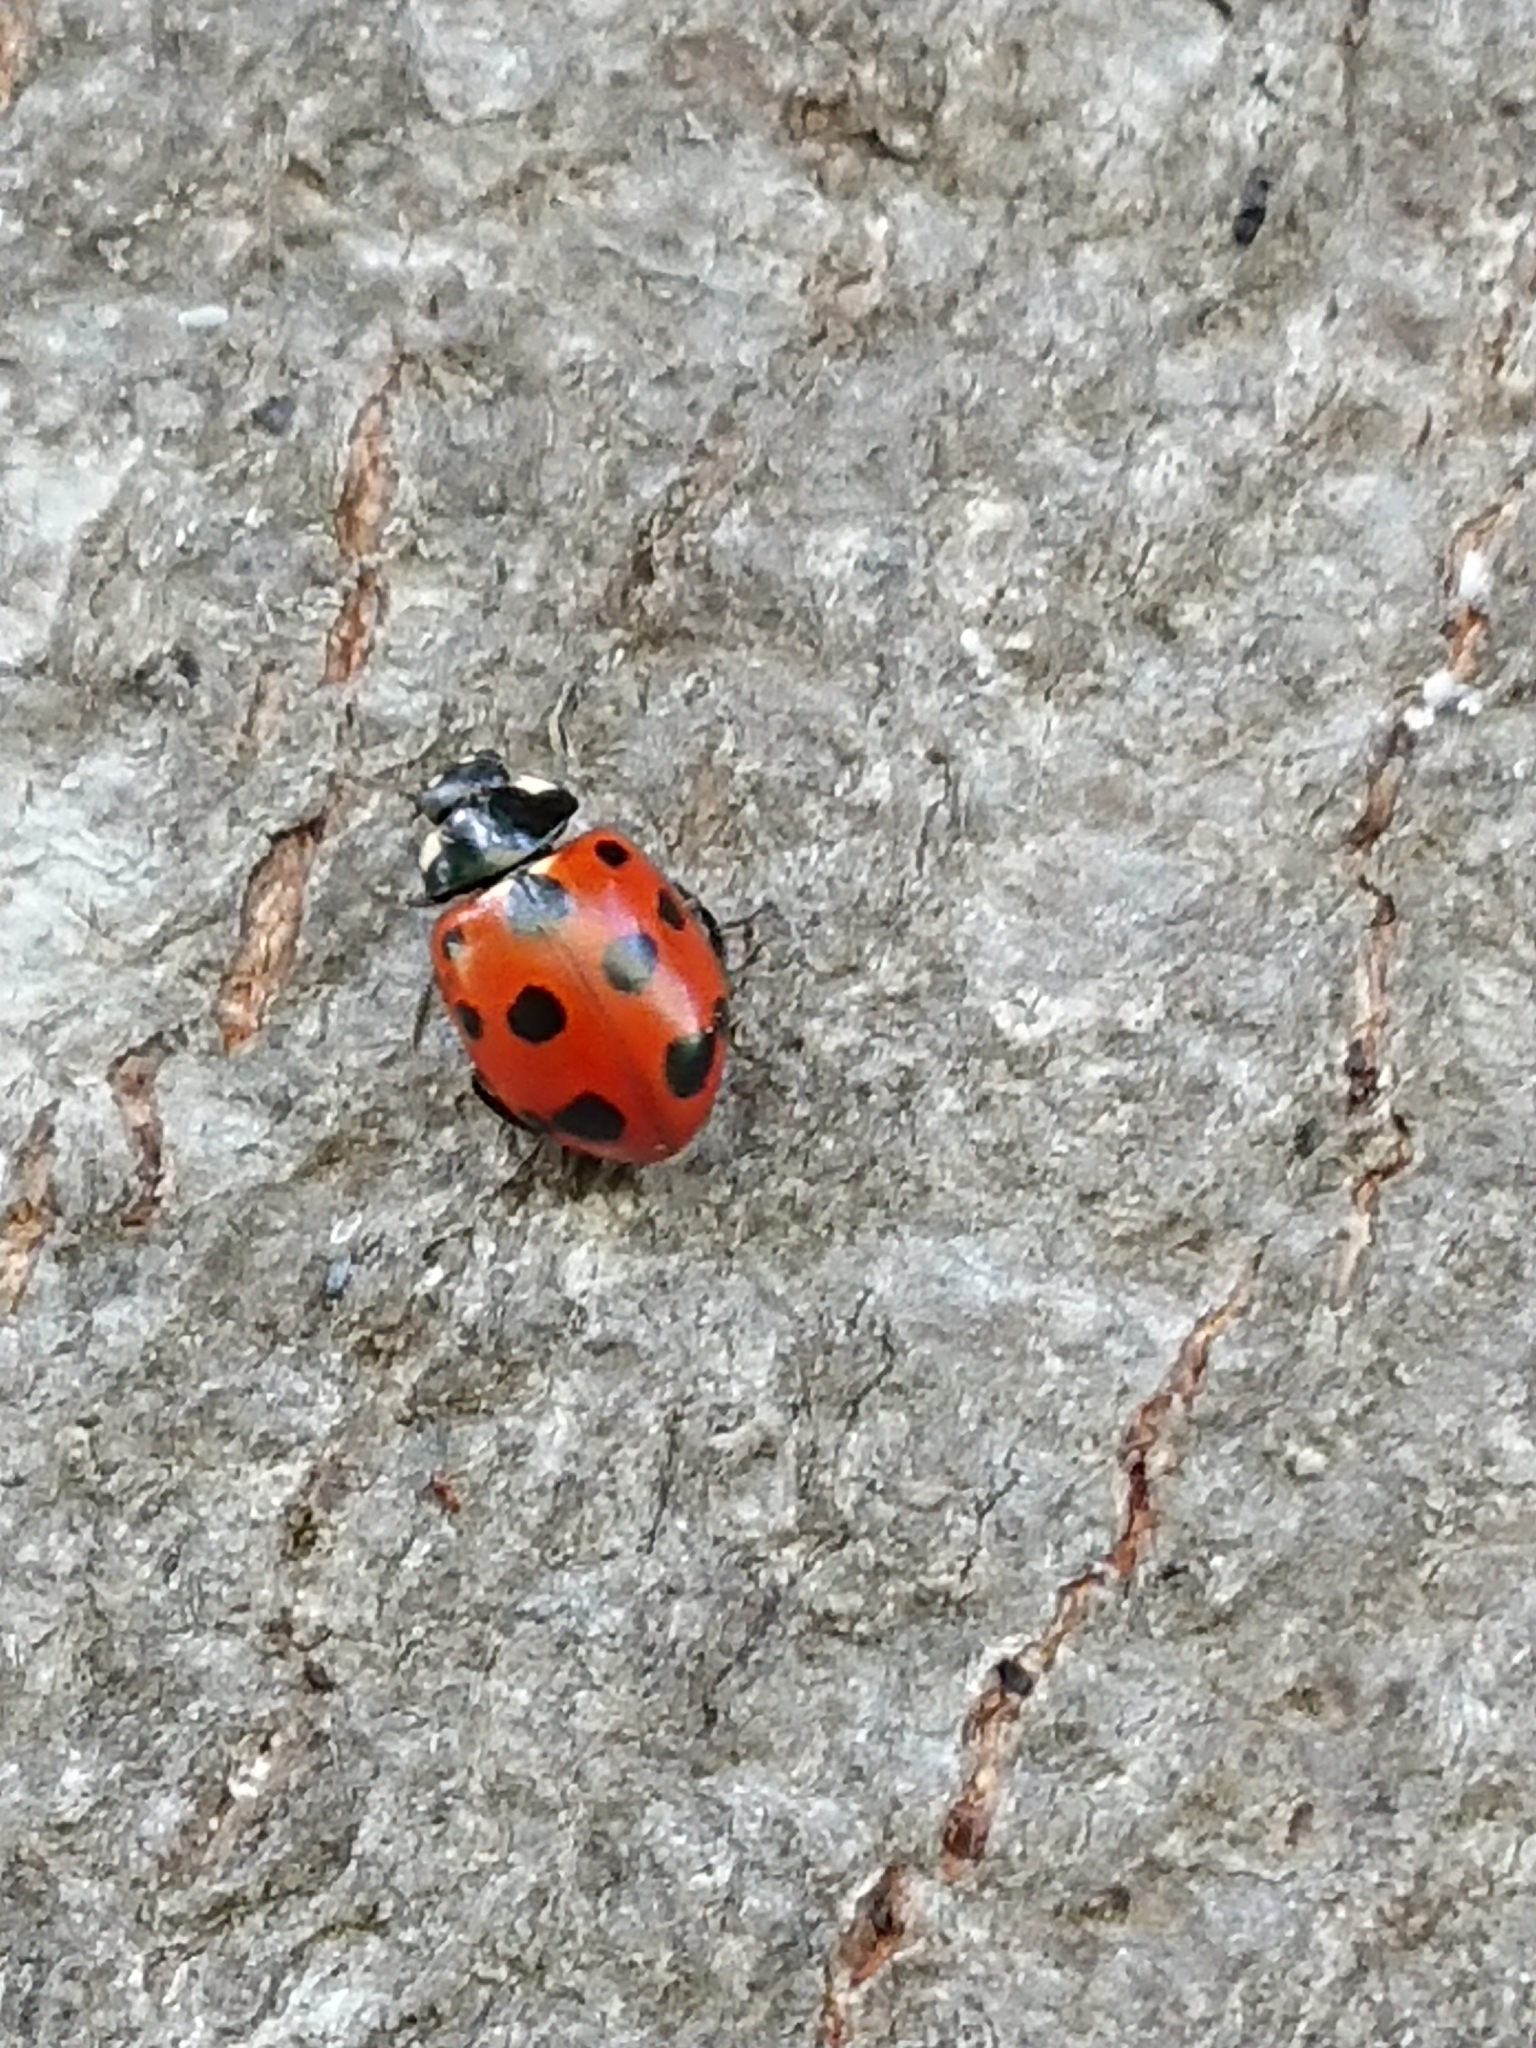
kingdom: Animalia
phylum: Arthropoda
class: Insecta
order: Coleoptera
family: Coccinellidae
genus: Coccinella
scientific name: Coccinella undecimpunctata
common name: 11-spot ladybird
